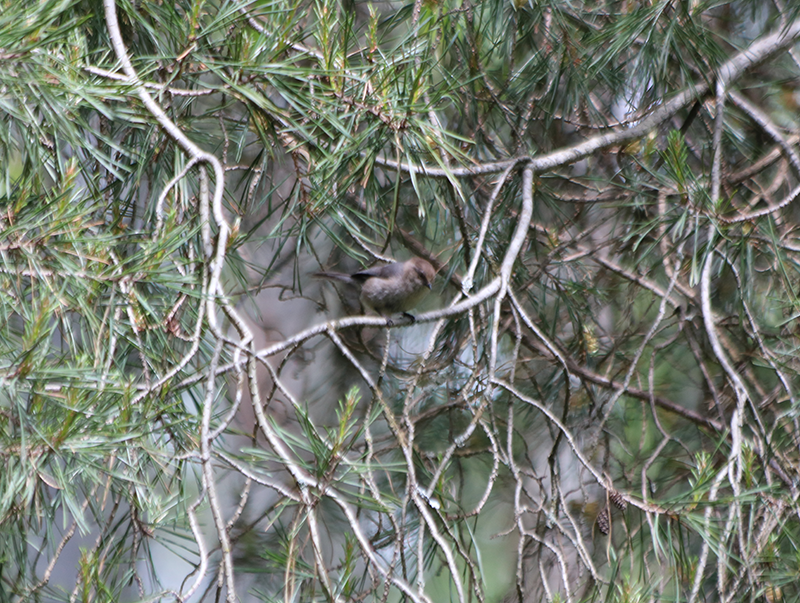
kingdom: Animalia
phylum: Chordata
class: Aves
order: Passeriformes
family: Aegithalidae
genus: Psaltriparus
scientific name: Psaltriparus minimus
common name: American bushtit
